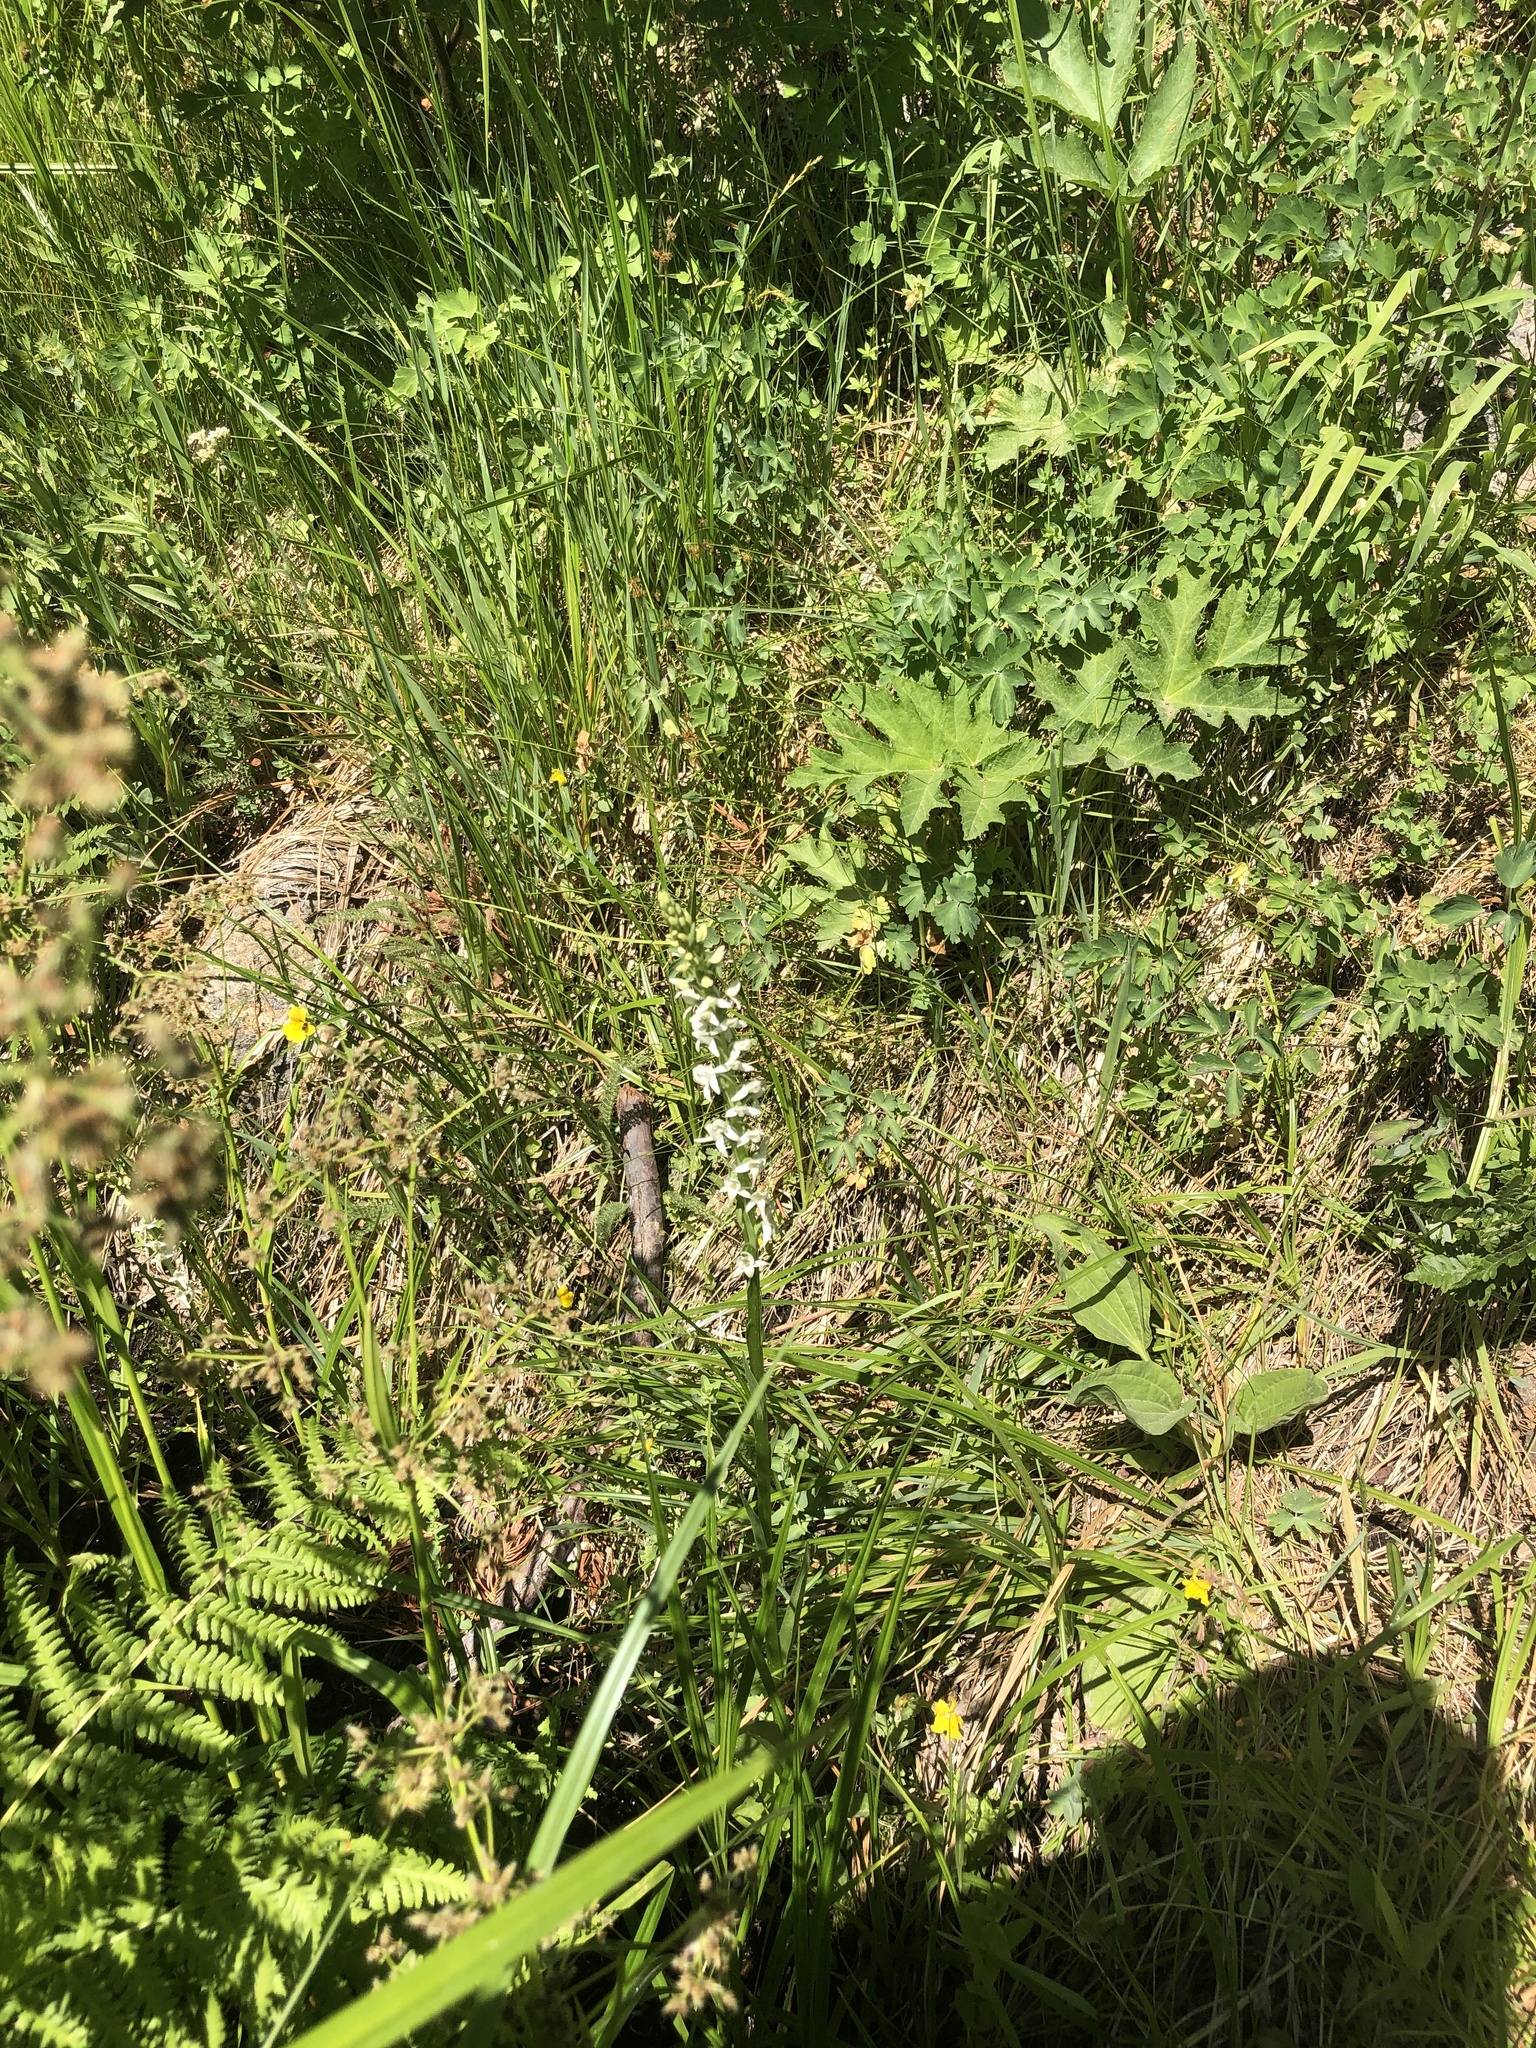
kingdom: Plantae
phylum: Tracheophyta
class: Liliopsida
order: Asparagales
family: Orchidaceae
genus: Platanthera
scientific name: Platanthera dilatata
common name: Bog candles
